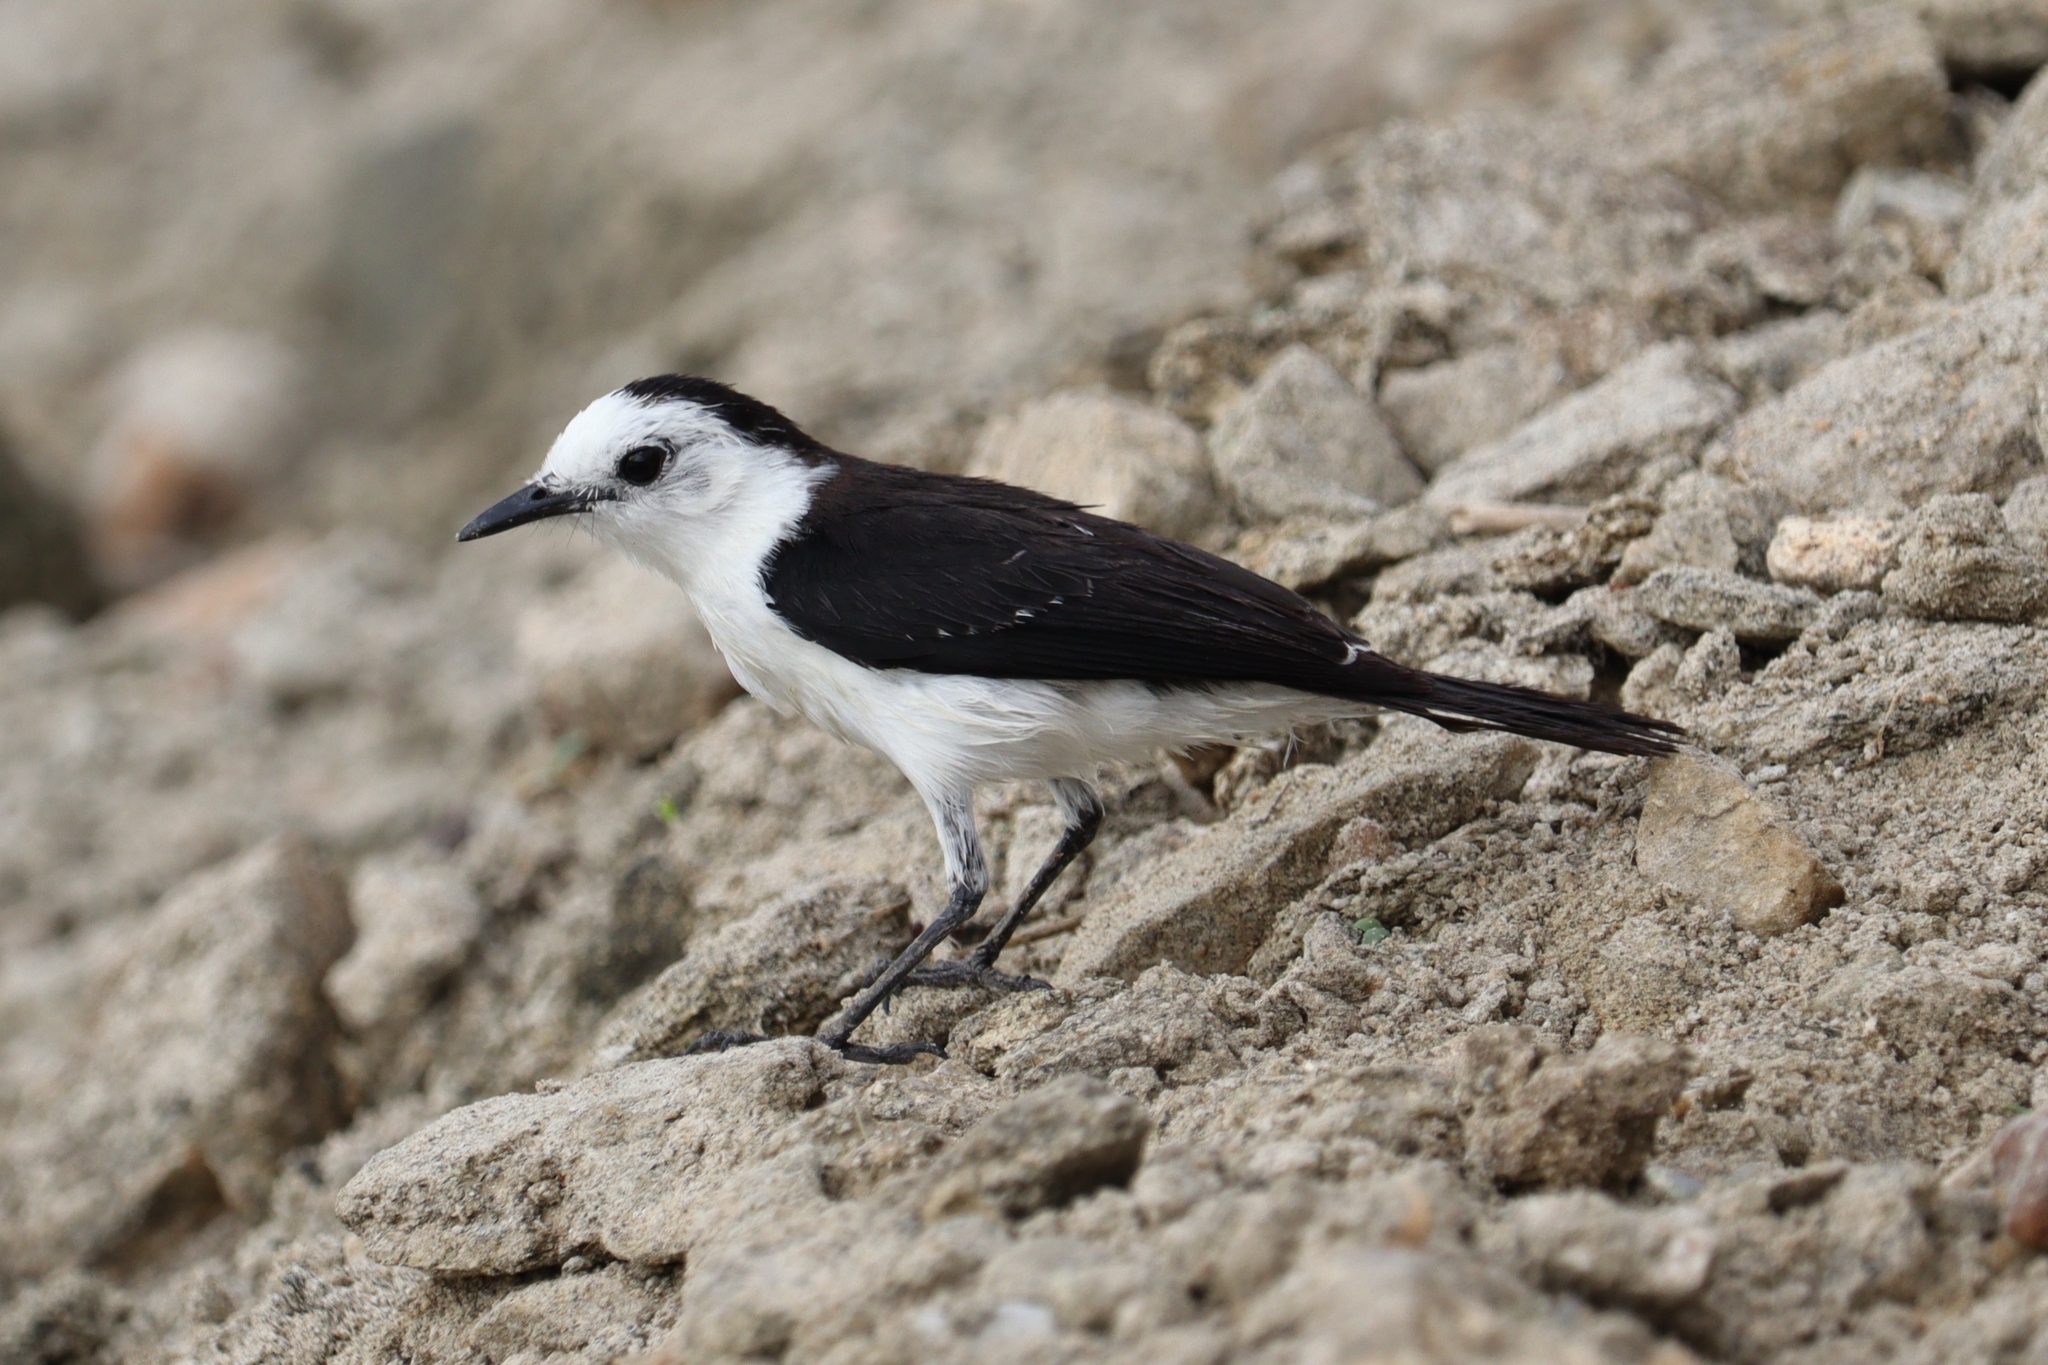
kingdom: Animalia
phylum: Chordata
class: Aves
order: Passeriformes
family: Tyrannidae
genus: Fluvicola
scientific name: Fluvicola pica
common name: Pied water-tyrant
